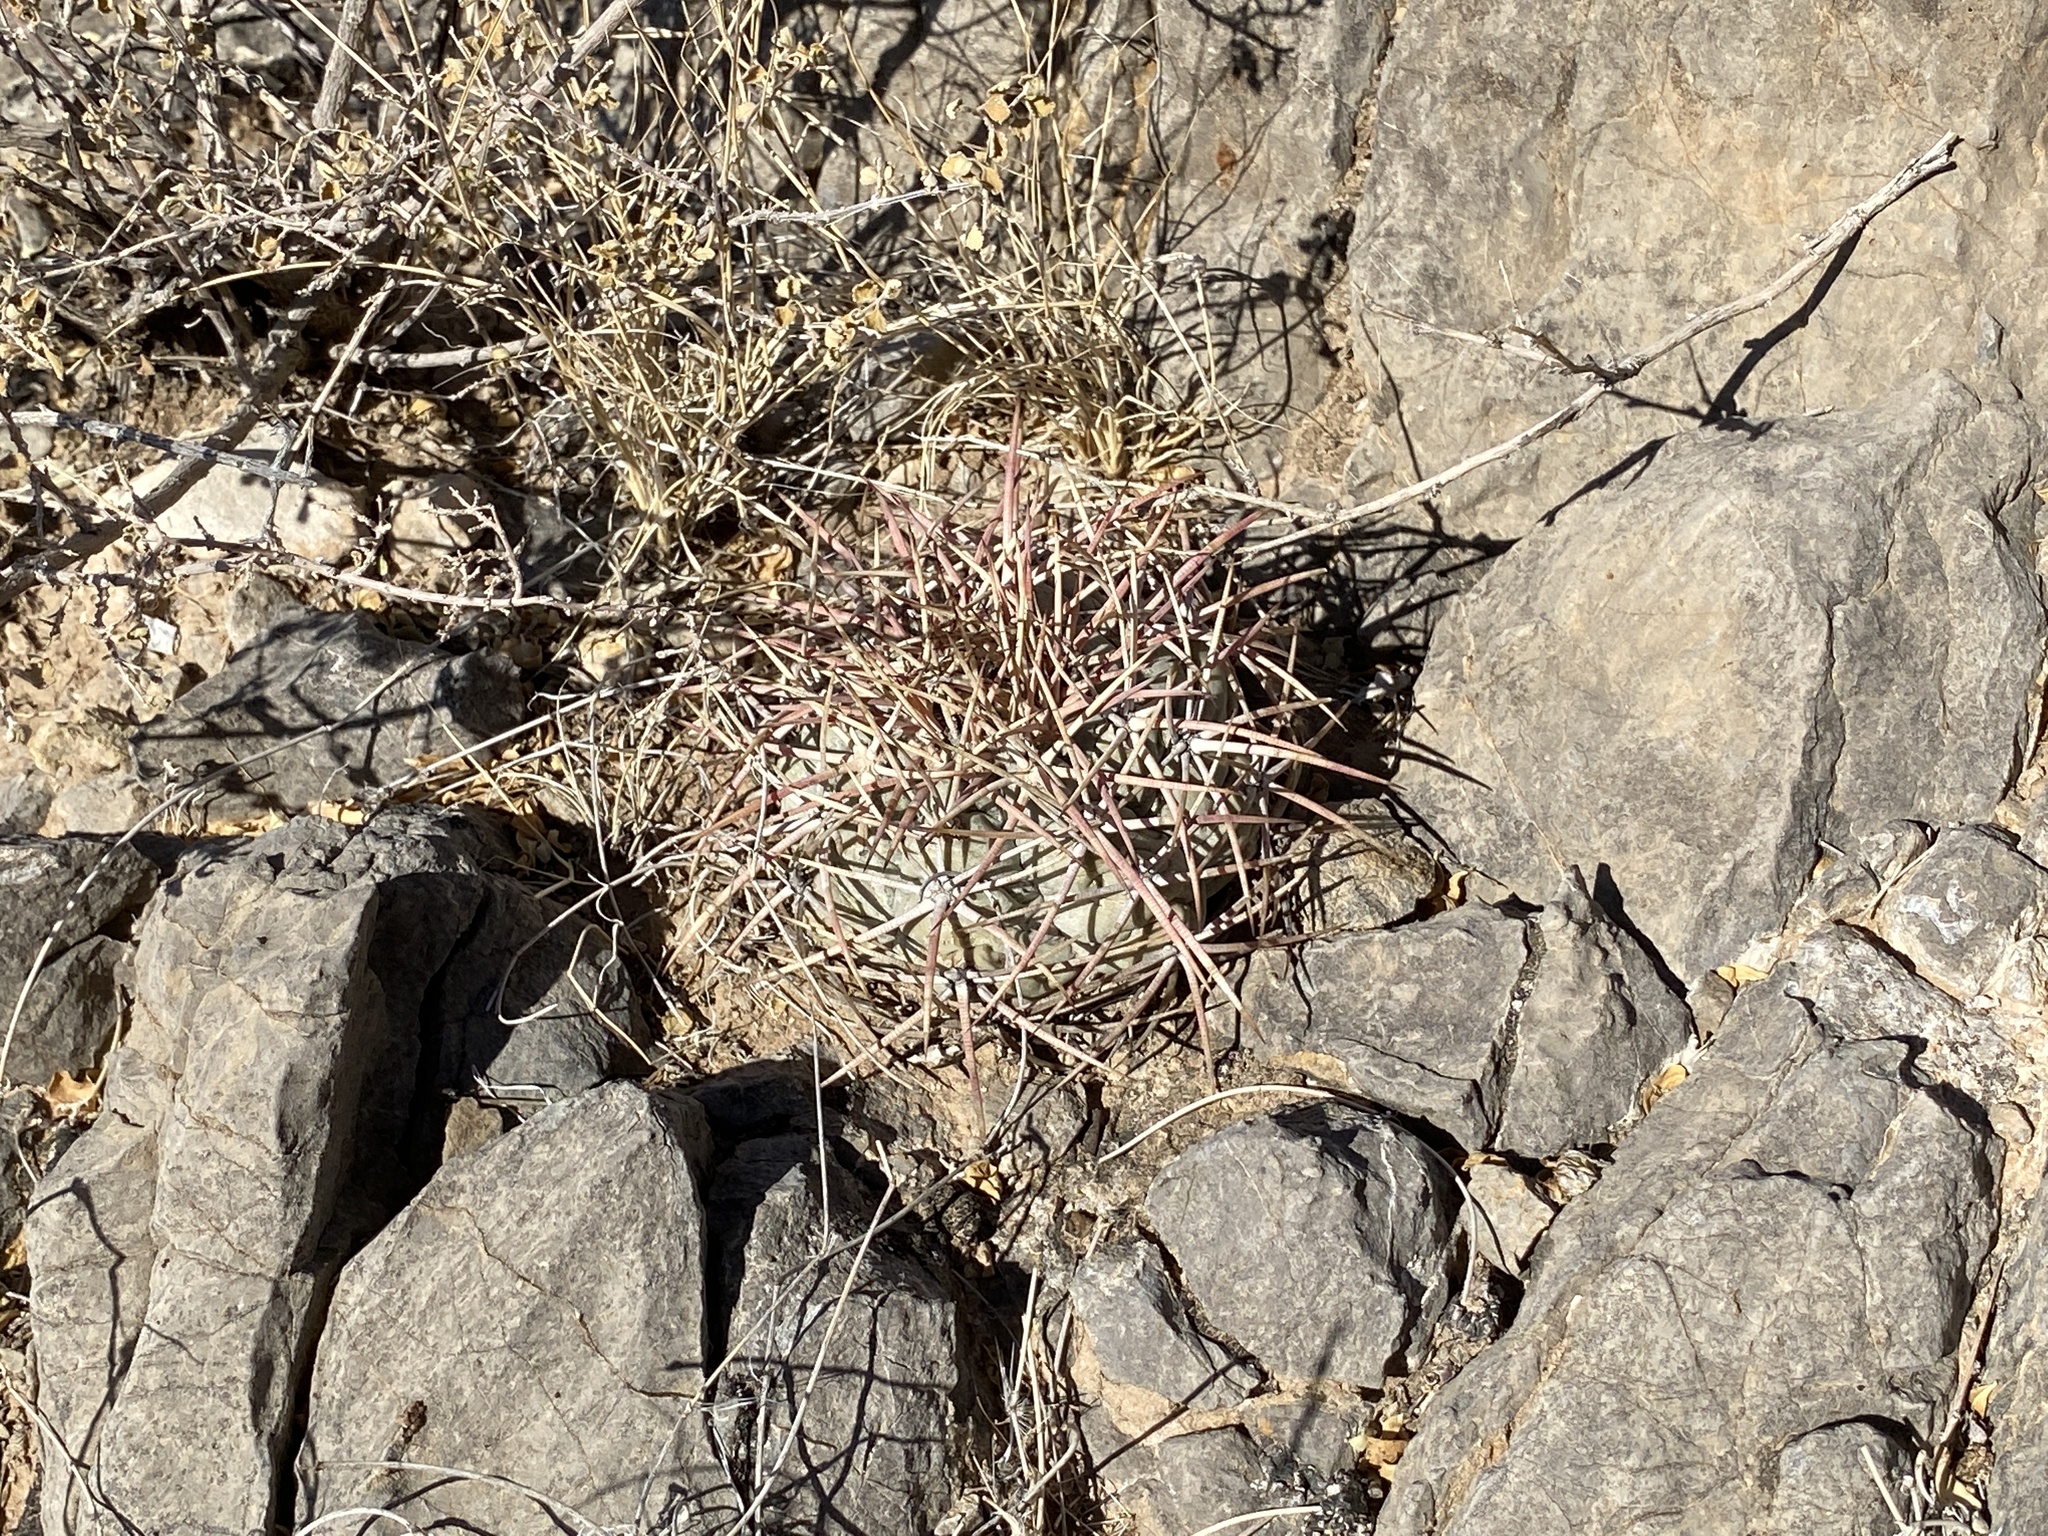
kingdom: Plantae
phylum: Tracheophyta
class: Magnoliopsida
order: Caryophyllales
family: Cactaceae
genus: Echinocactus
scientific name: Echinocactus horizonthalonius
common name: Devilshead
